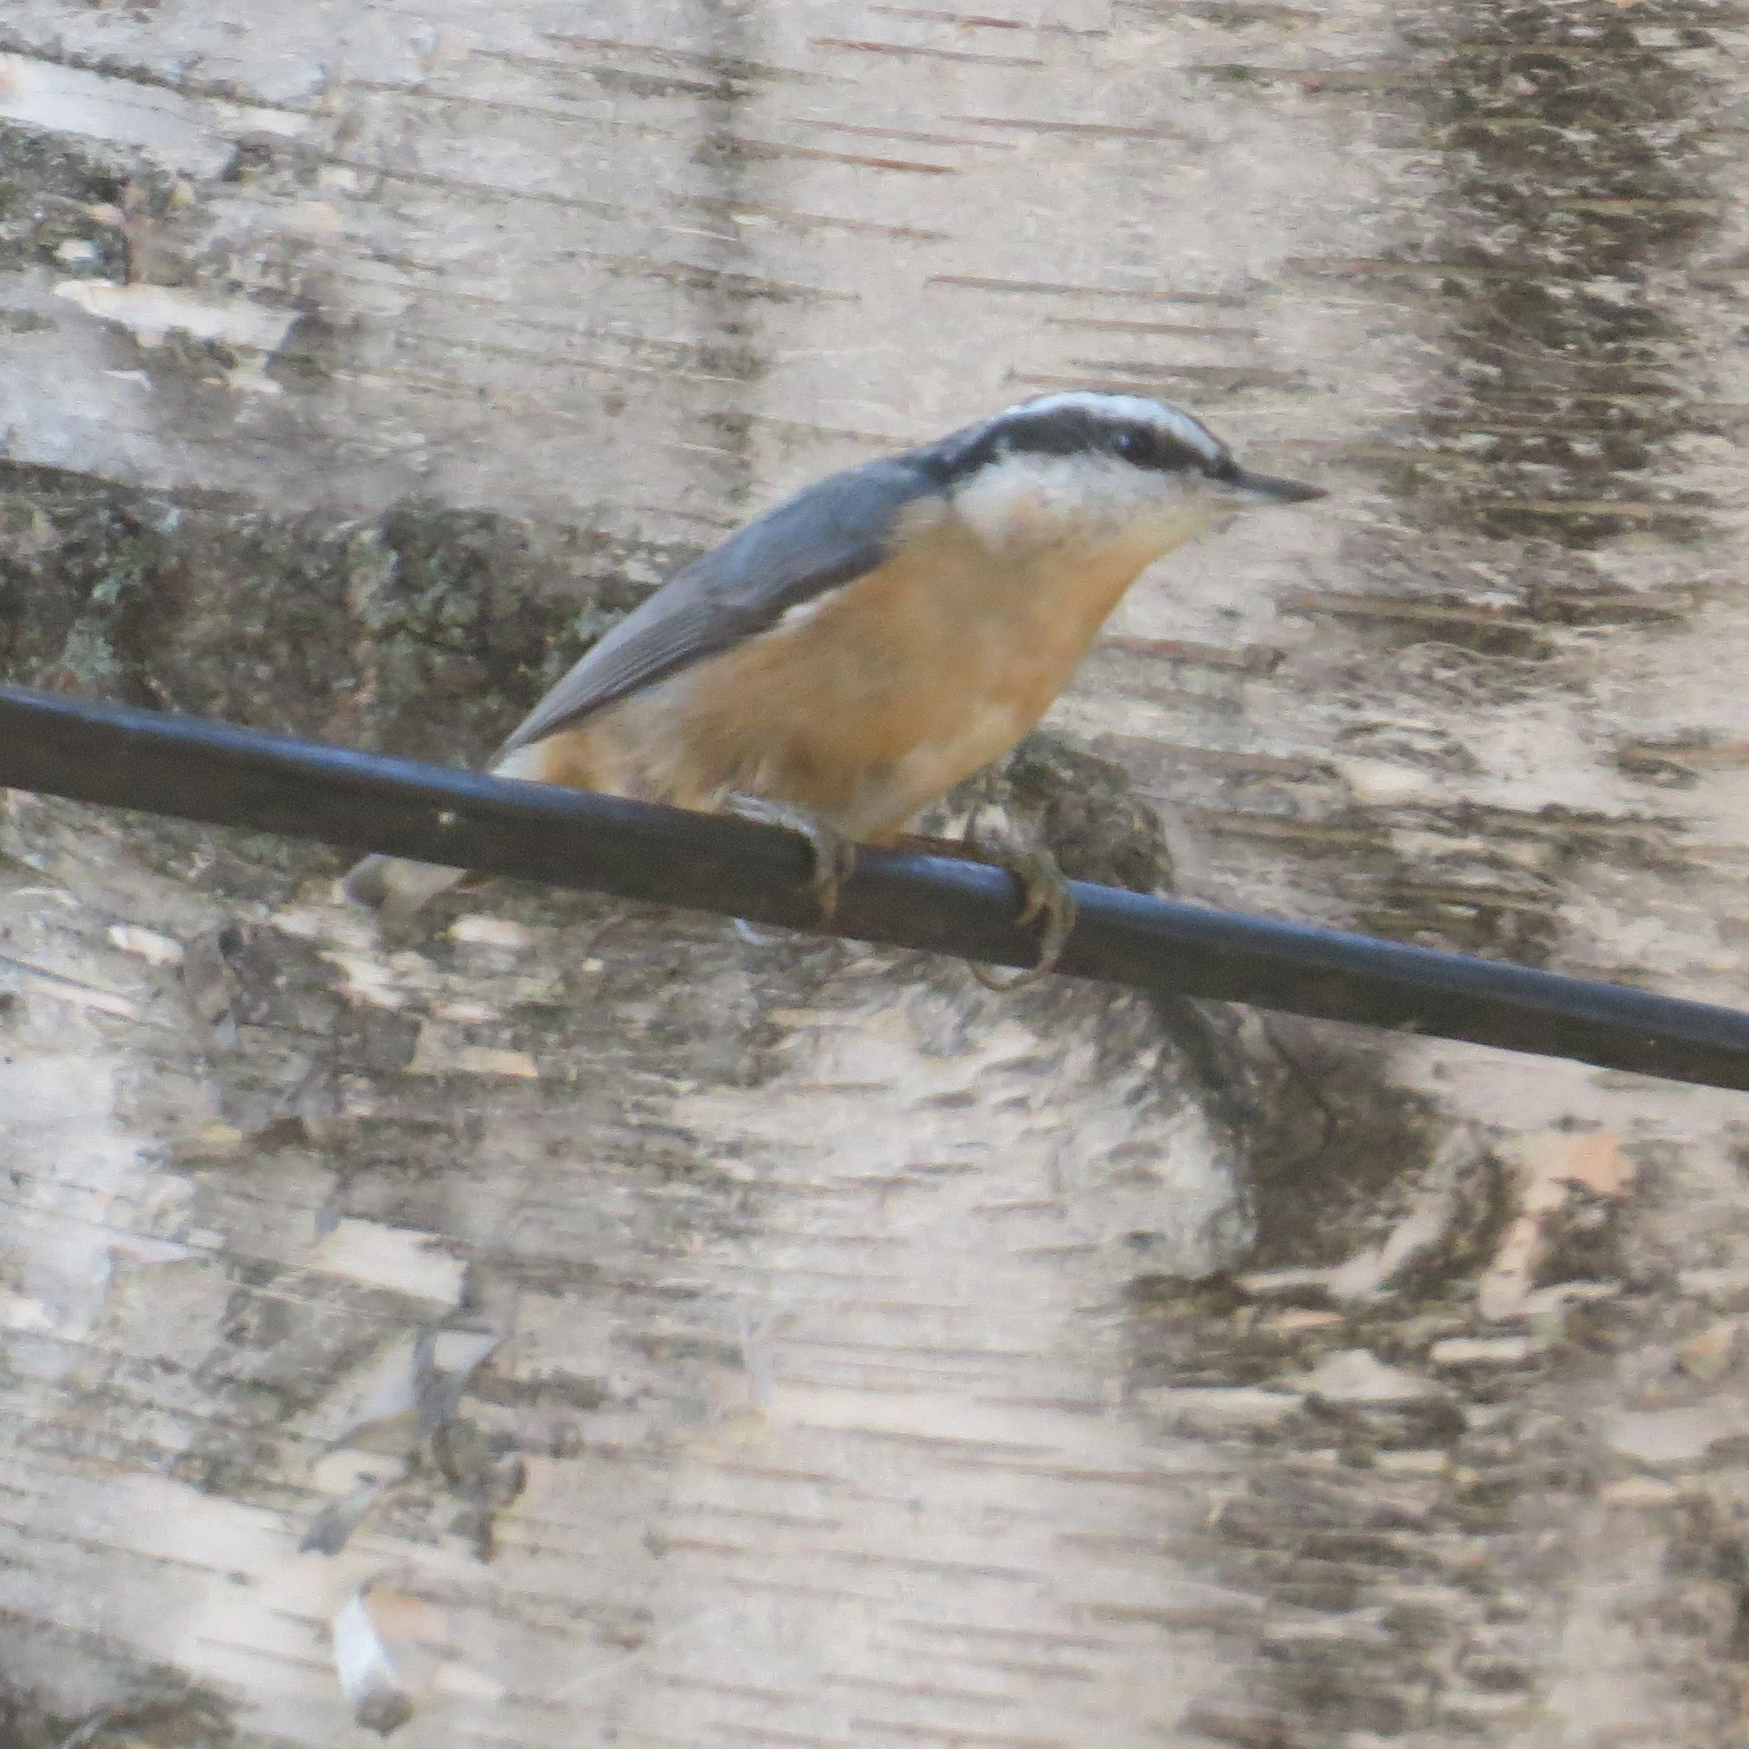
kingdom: Animalia
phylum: Chordata
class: Aves
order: Passeriformes
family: Sittidae
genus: Sitta
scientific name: Sitta canadensis
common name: Red-breasted nuthatch
